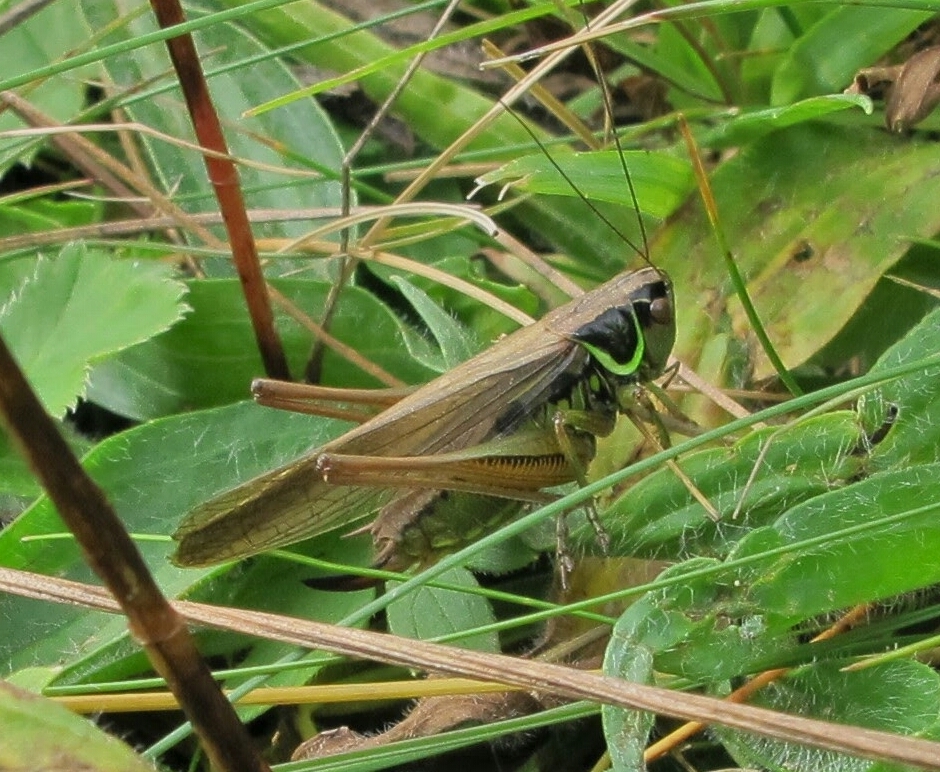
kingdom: Animalia
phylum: Arthropoda
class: Insecta
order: Orthoptera
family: Tettigoniidae
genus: Roeseliana
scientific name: Roeseliana roeselii
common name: Roesel's bush cricket
